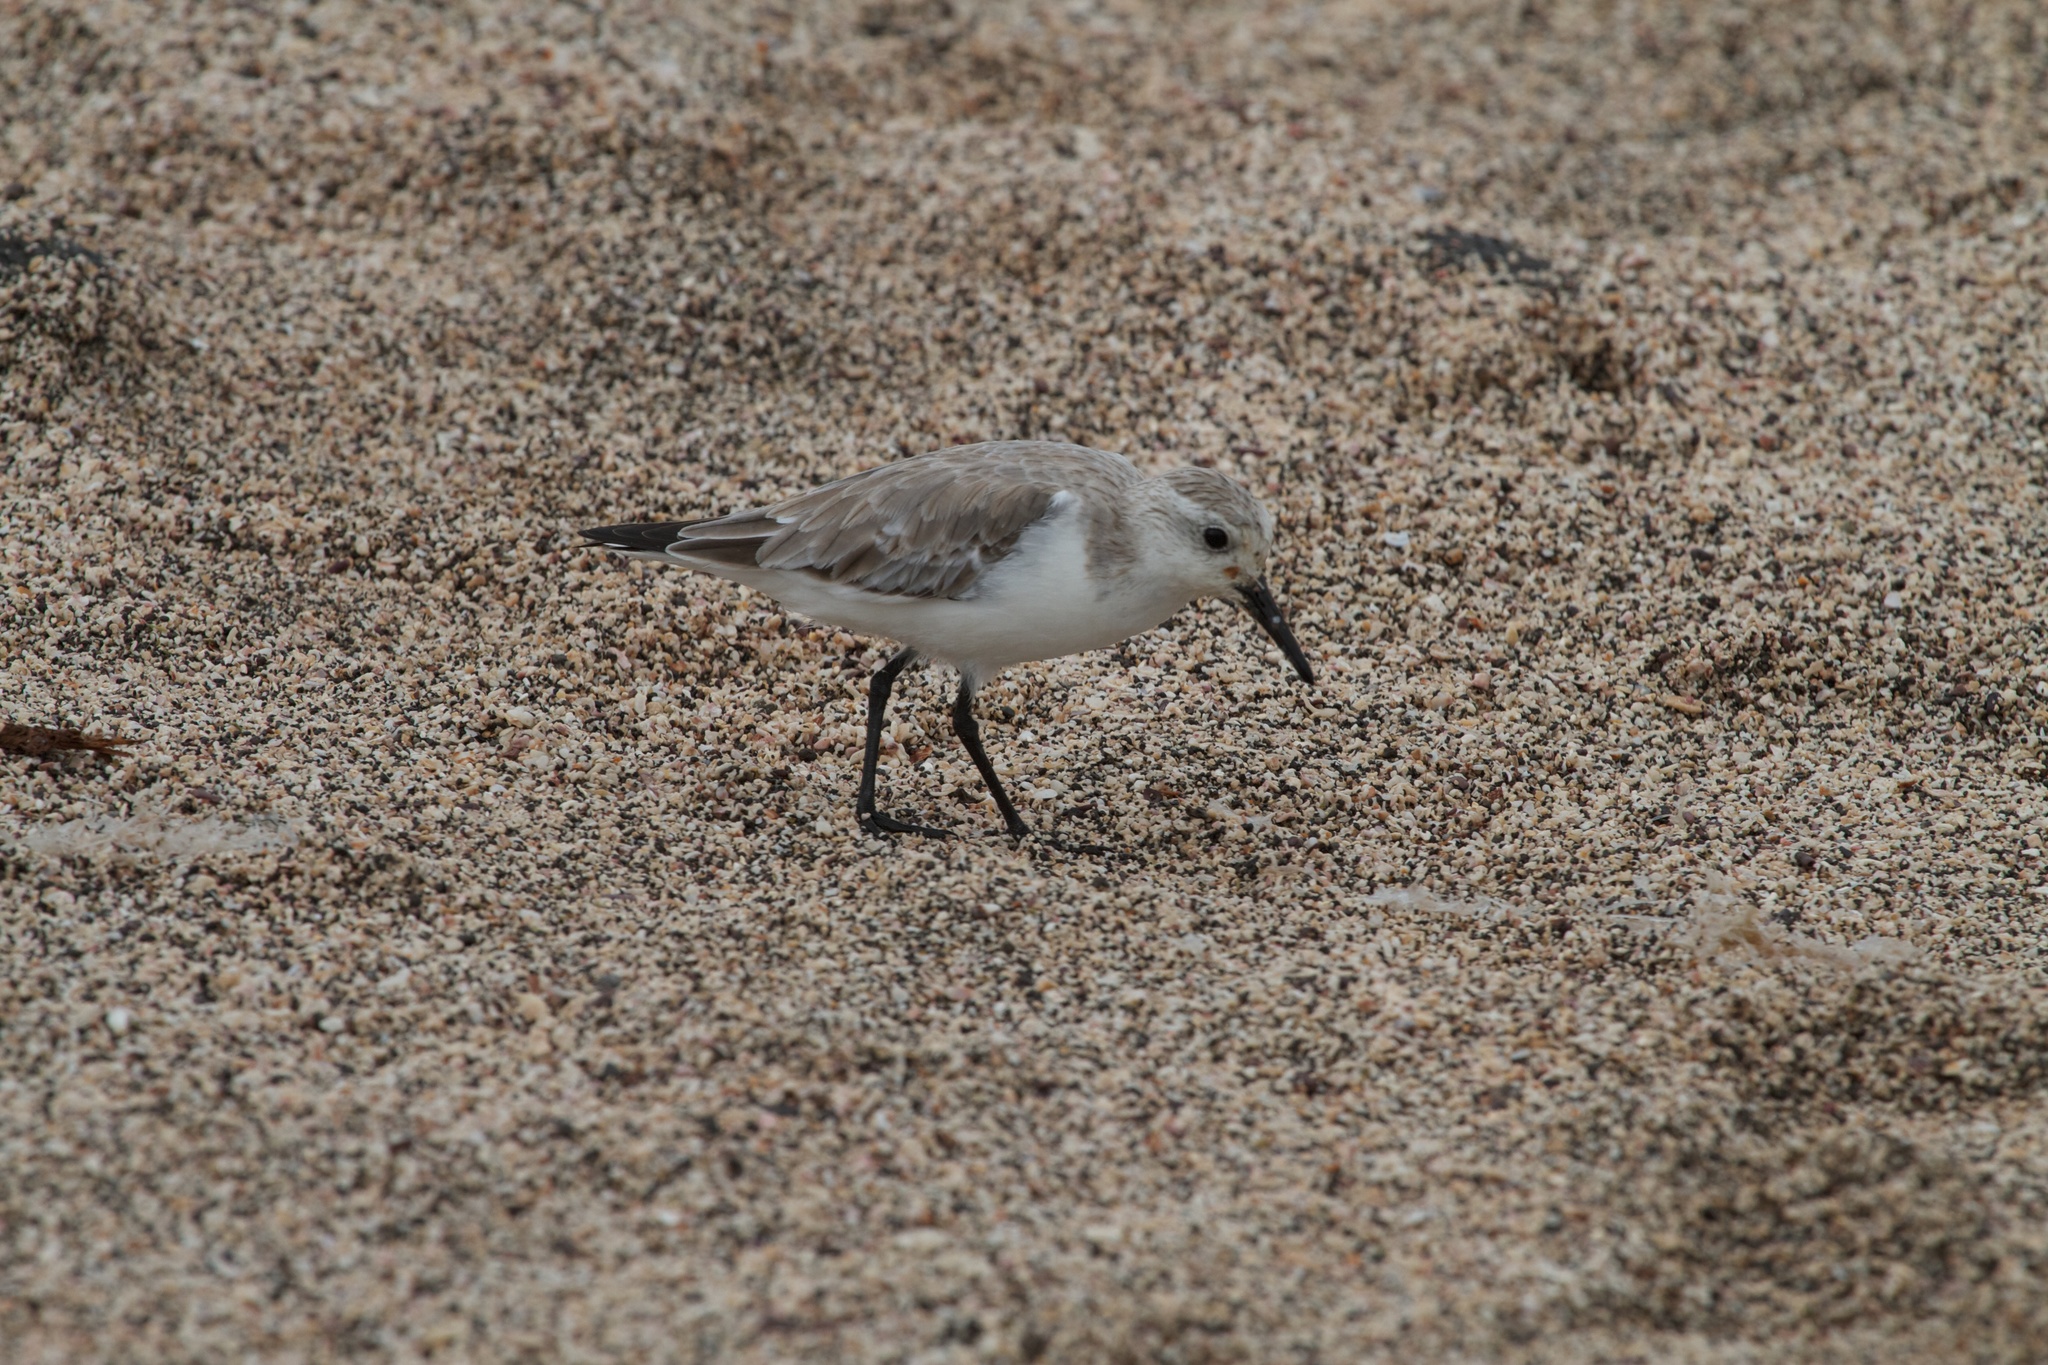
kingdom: Animalia
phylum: Chordata
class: Aves
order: Charadriiformes
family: Scolopacidae
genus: Calidris
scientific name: Calidris alba
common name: Sanderling
